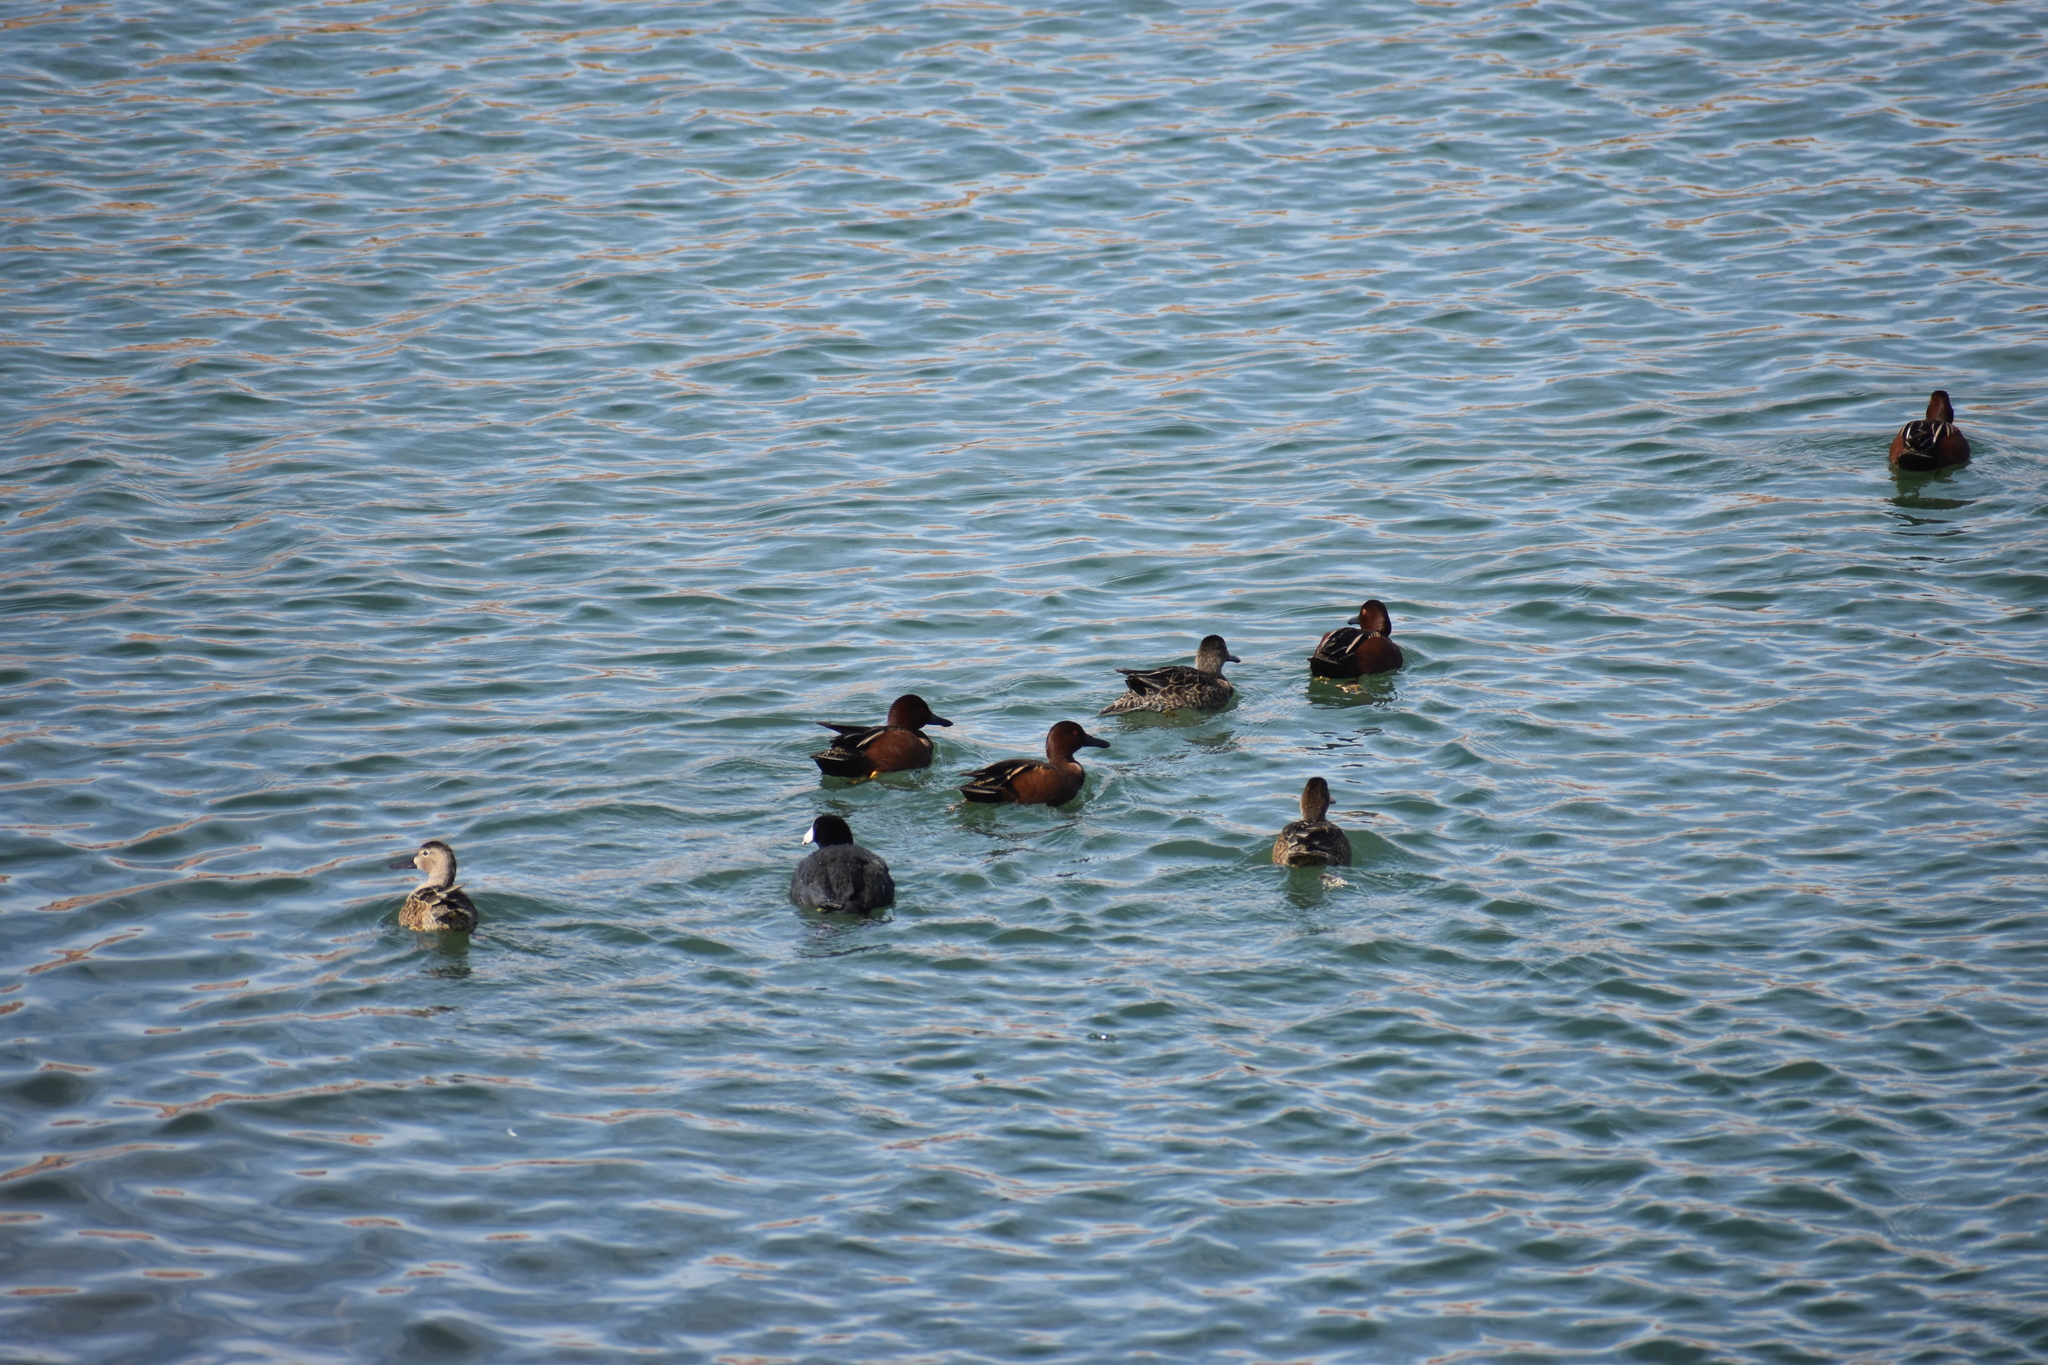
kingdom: Animalia
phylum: Chordata
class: Aves
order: Gruiformes
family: Rallidae
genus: Fulica
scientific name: Fulica americana
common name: American coot
